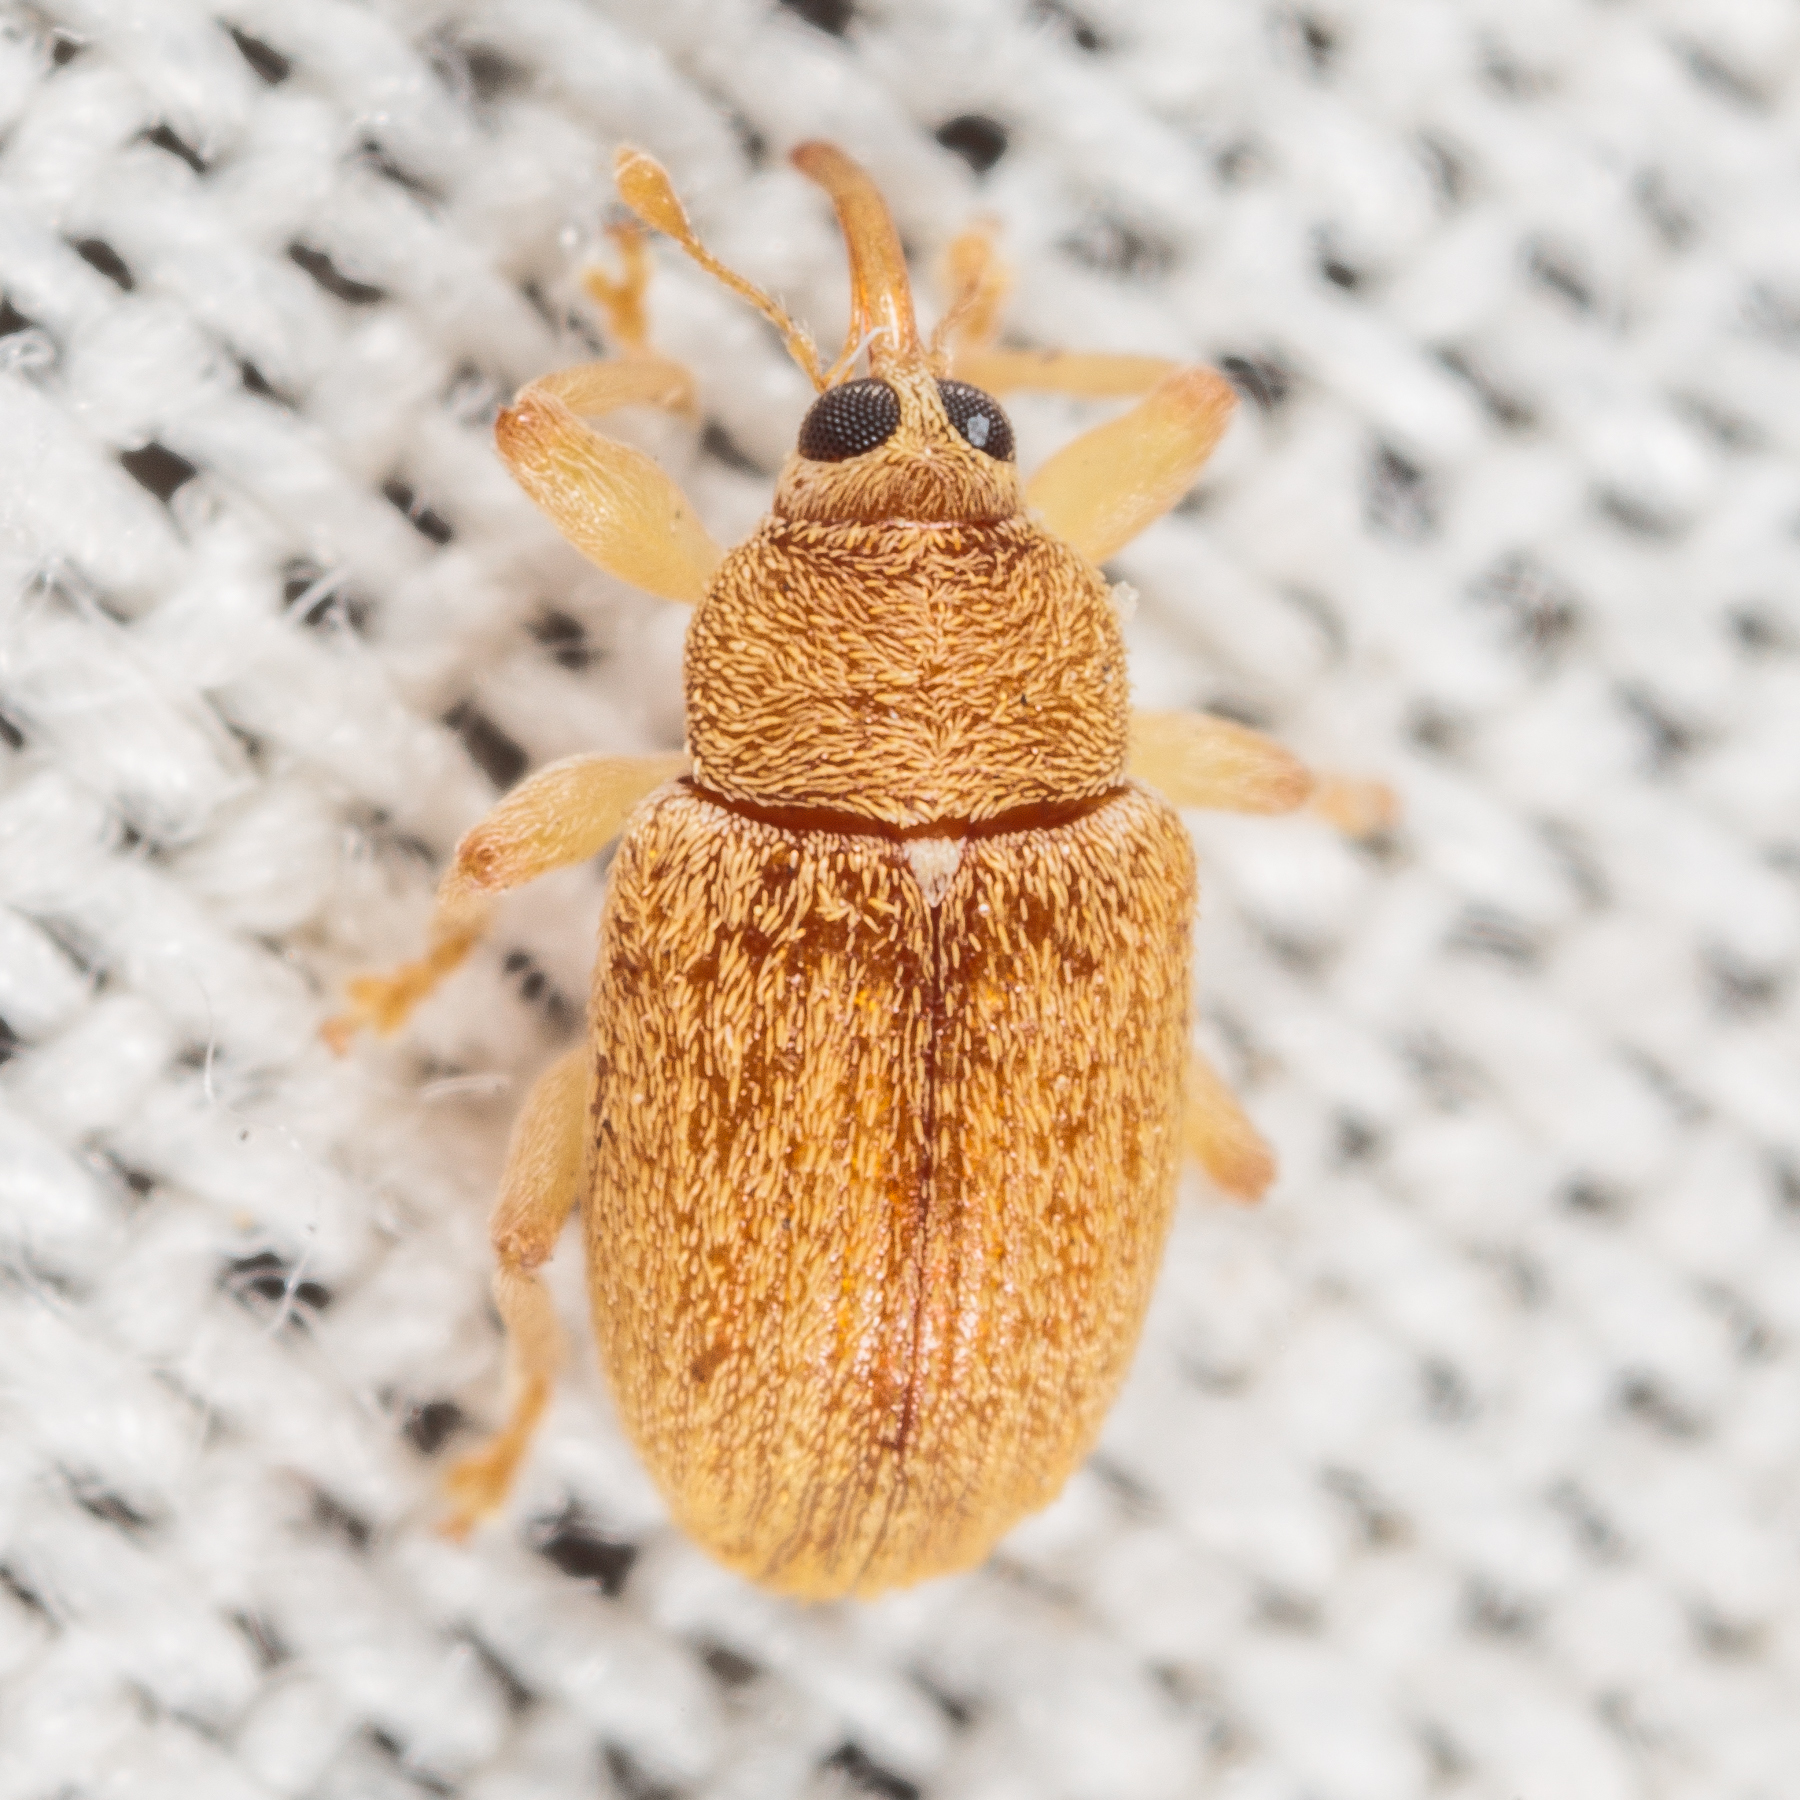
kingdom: Animalia
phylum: Arthropoda
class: Insecta
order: Coleoptera
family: Curculionidae
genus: Lignyodes
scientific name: Lignyodes helvolus
